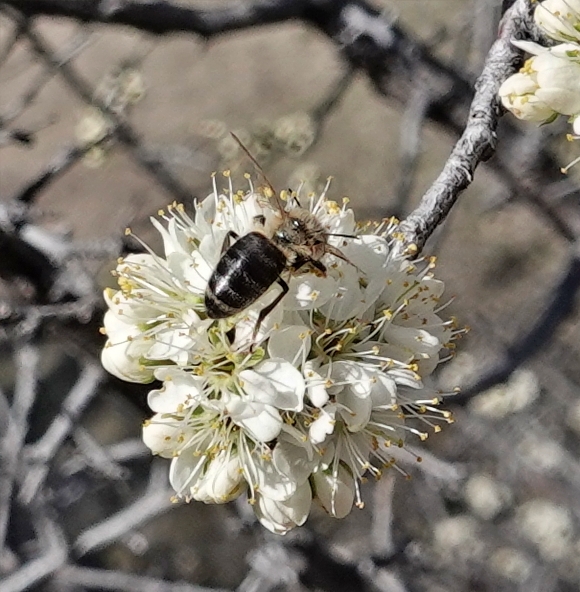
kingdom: Animalia
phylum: Arthropoda
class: Insecta
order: Hymenoptera
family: Apidae
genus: Apis
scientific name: Apis mellifera
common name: Honey bee
